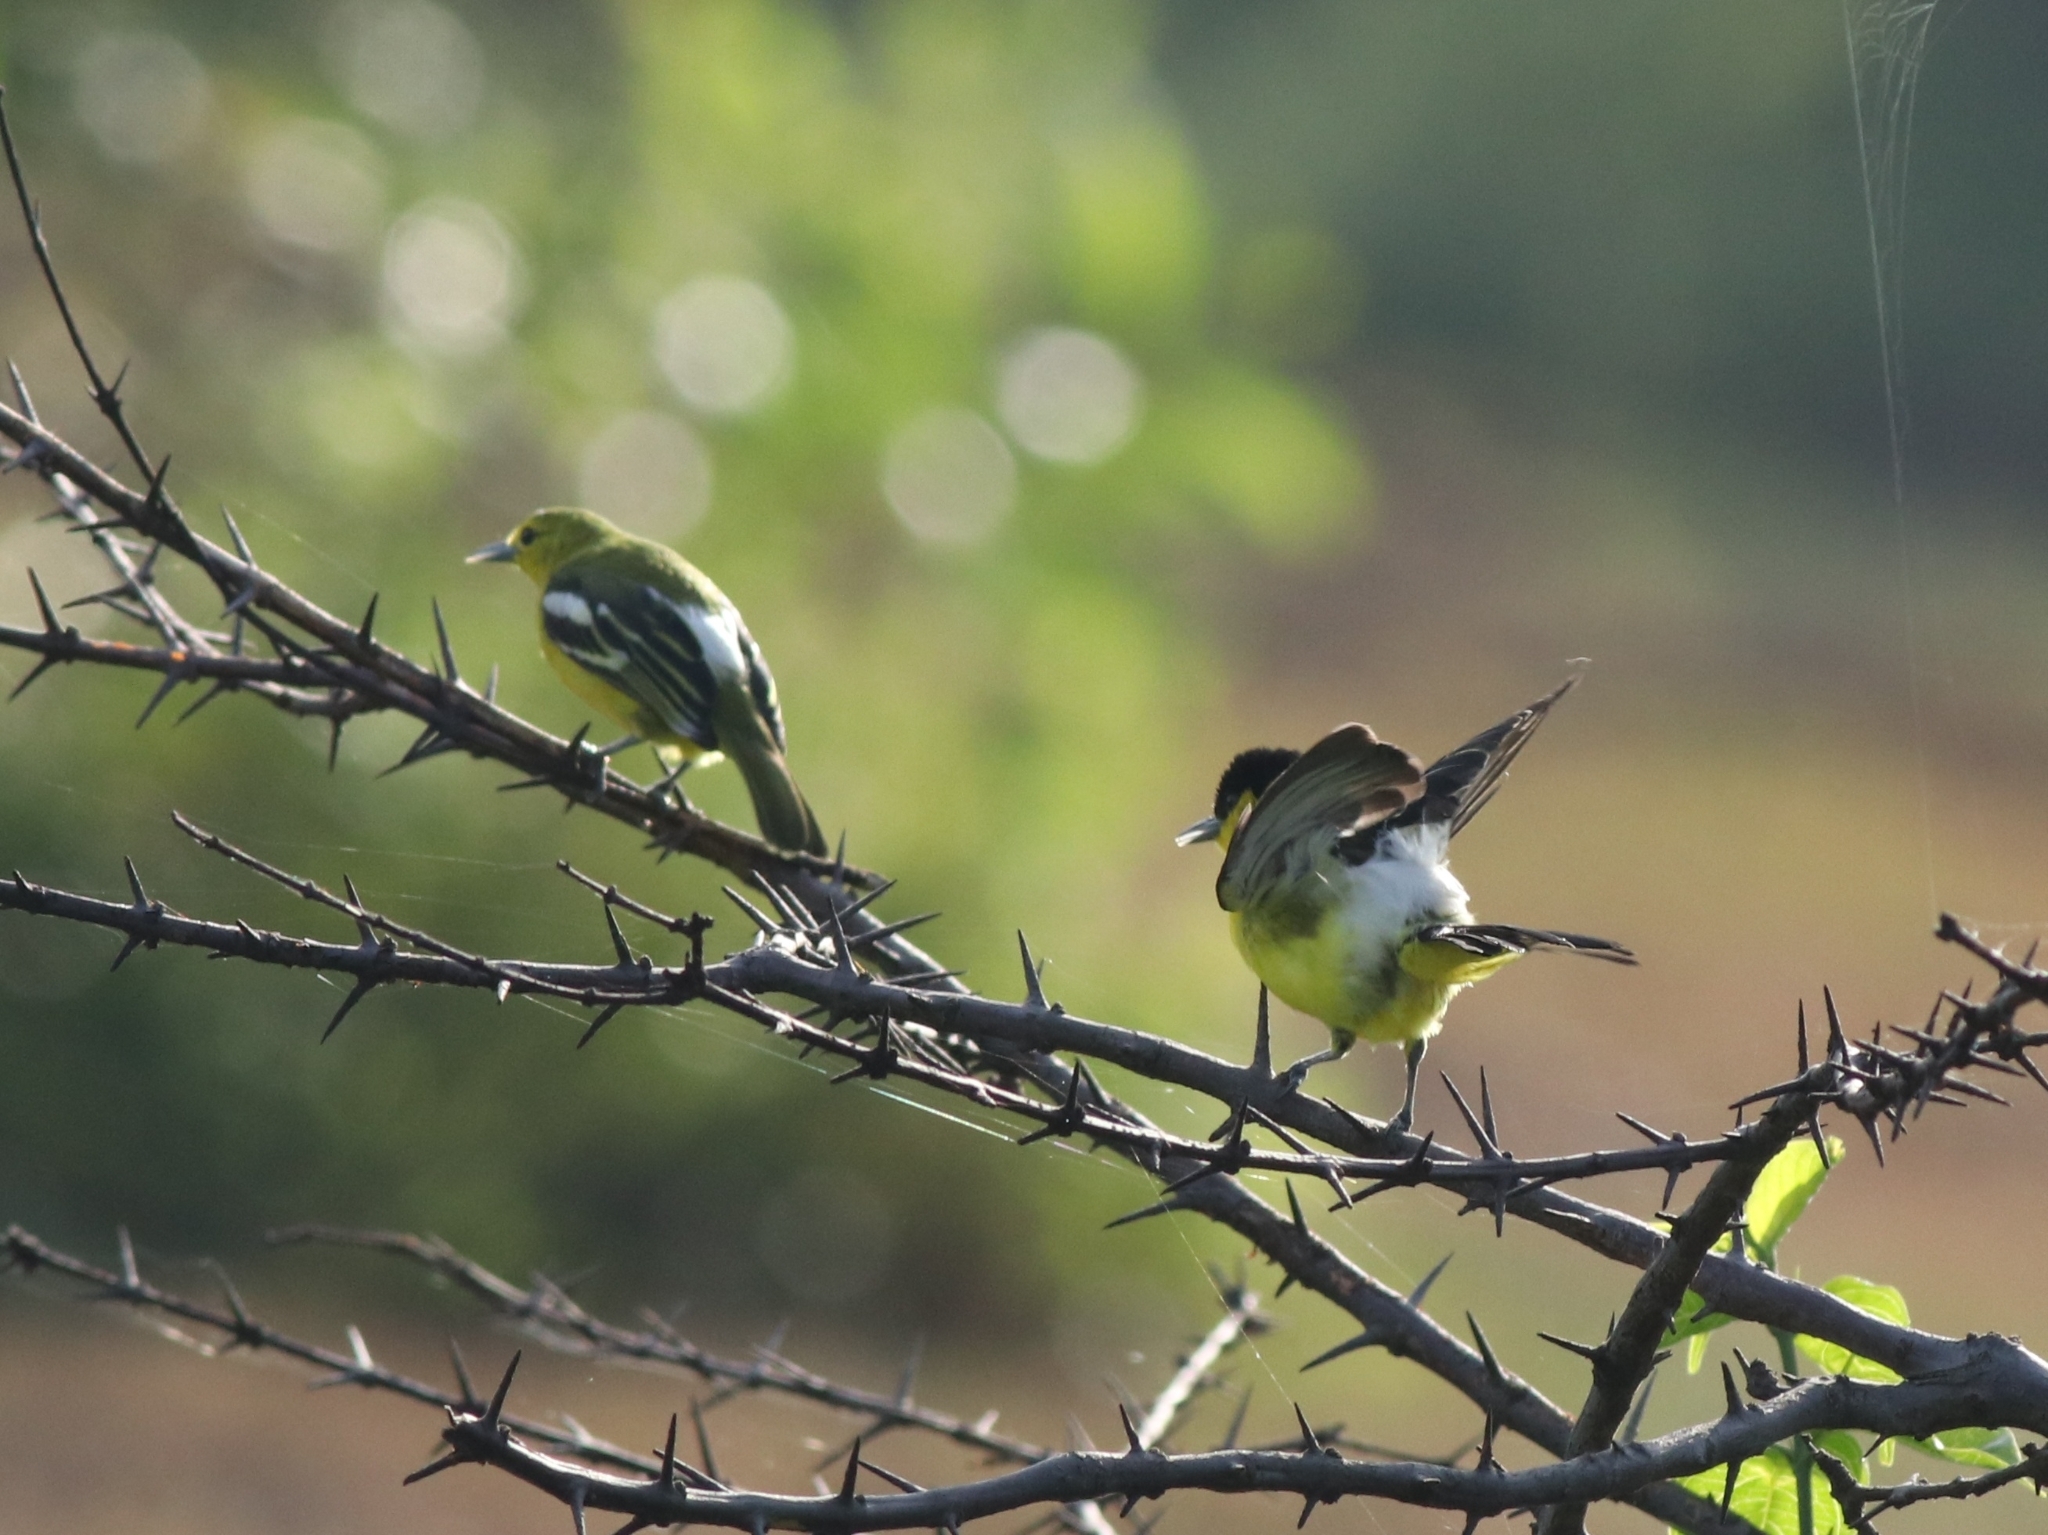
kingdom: Animalia
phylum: Chordata
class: Aves
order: Passeriformes
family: Aegithinidae
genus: Aegithina
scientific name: Aegithina tiphia
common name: Common iora
